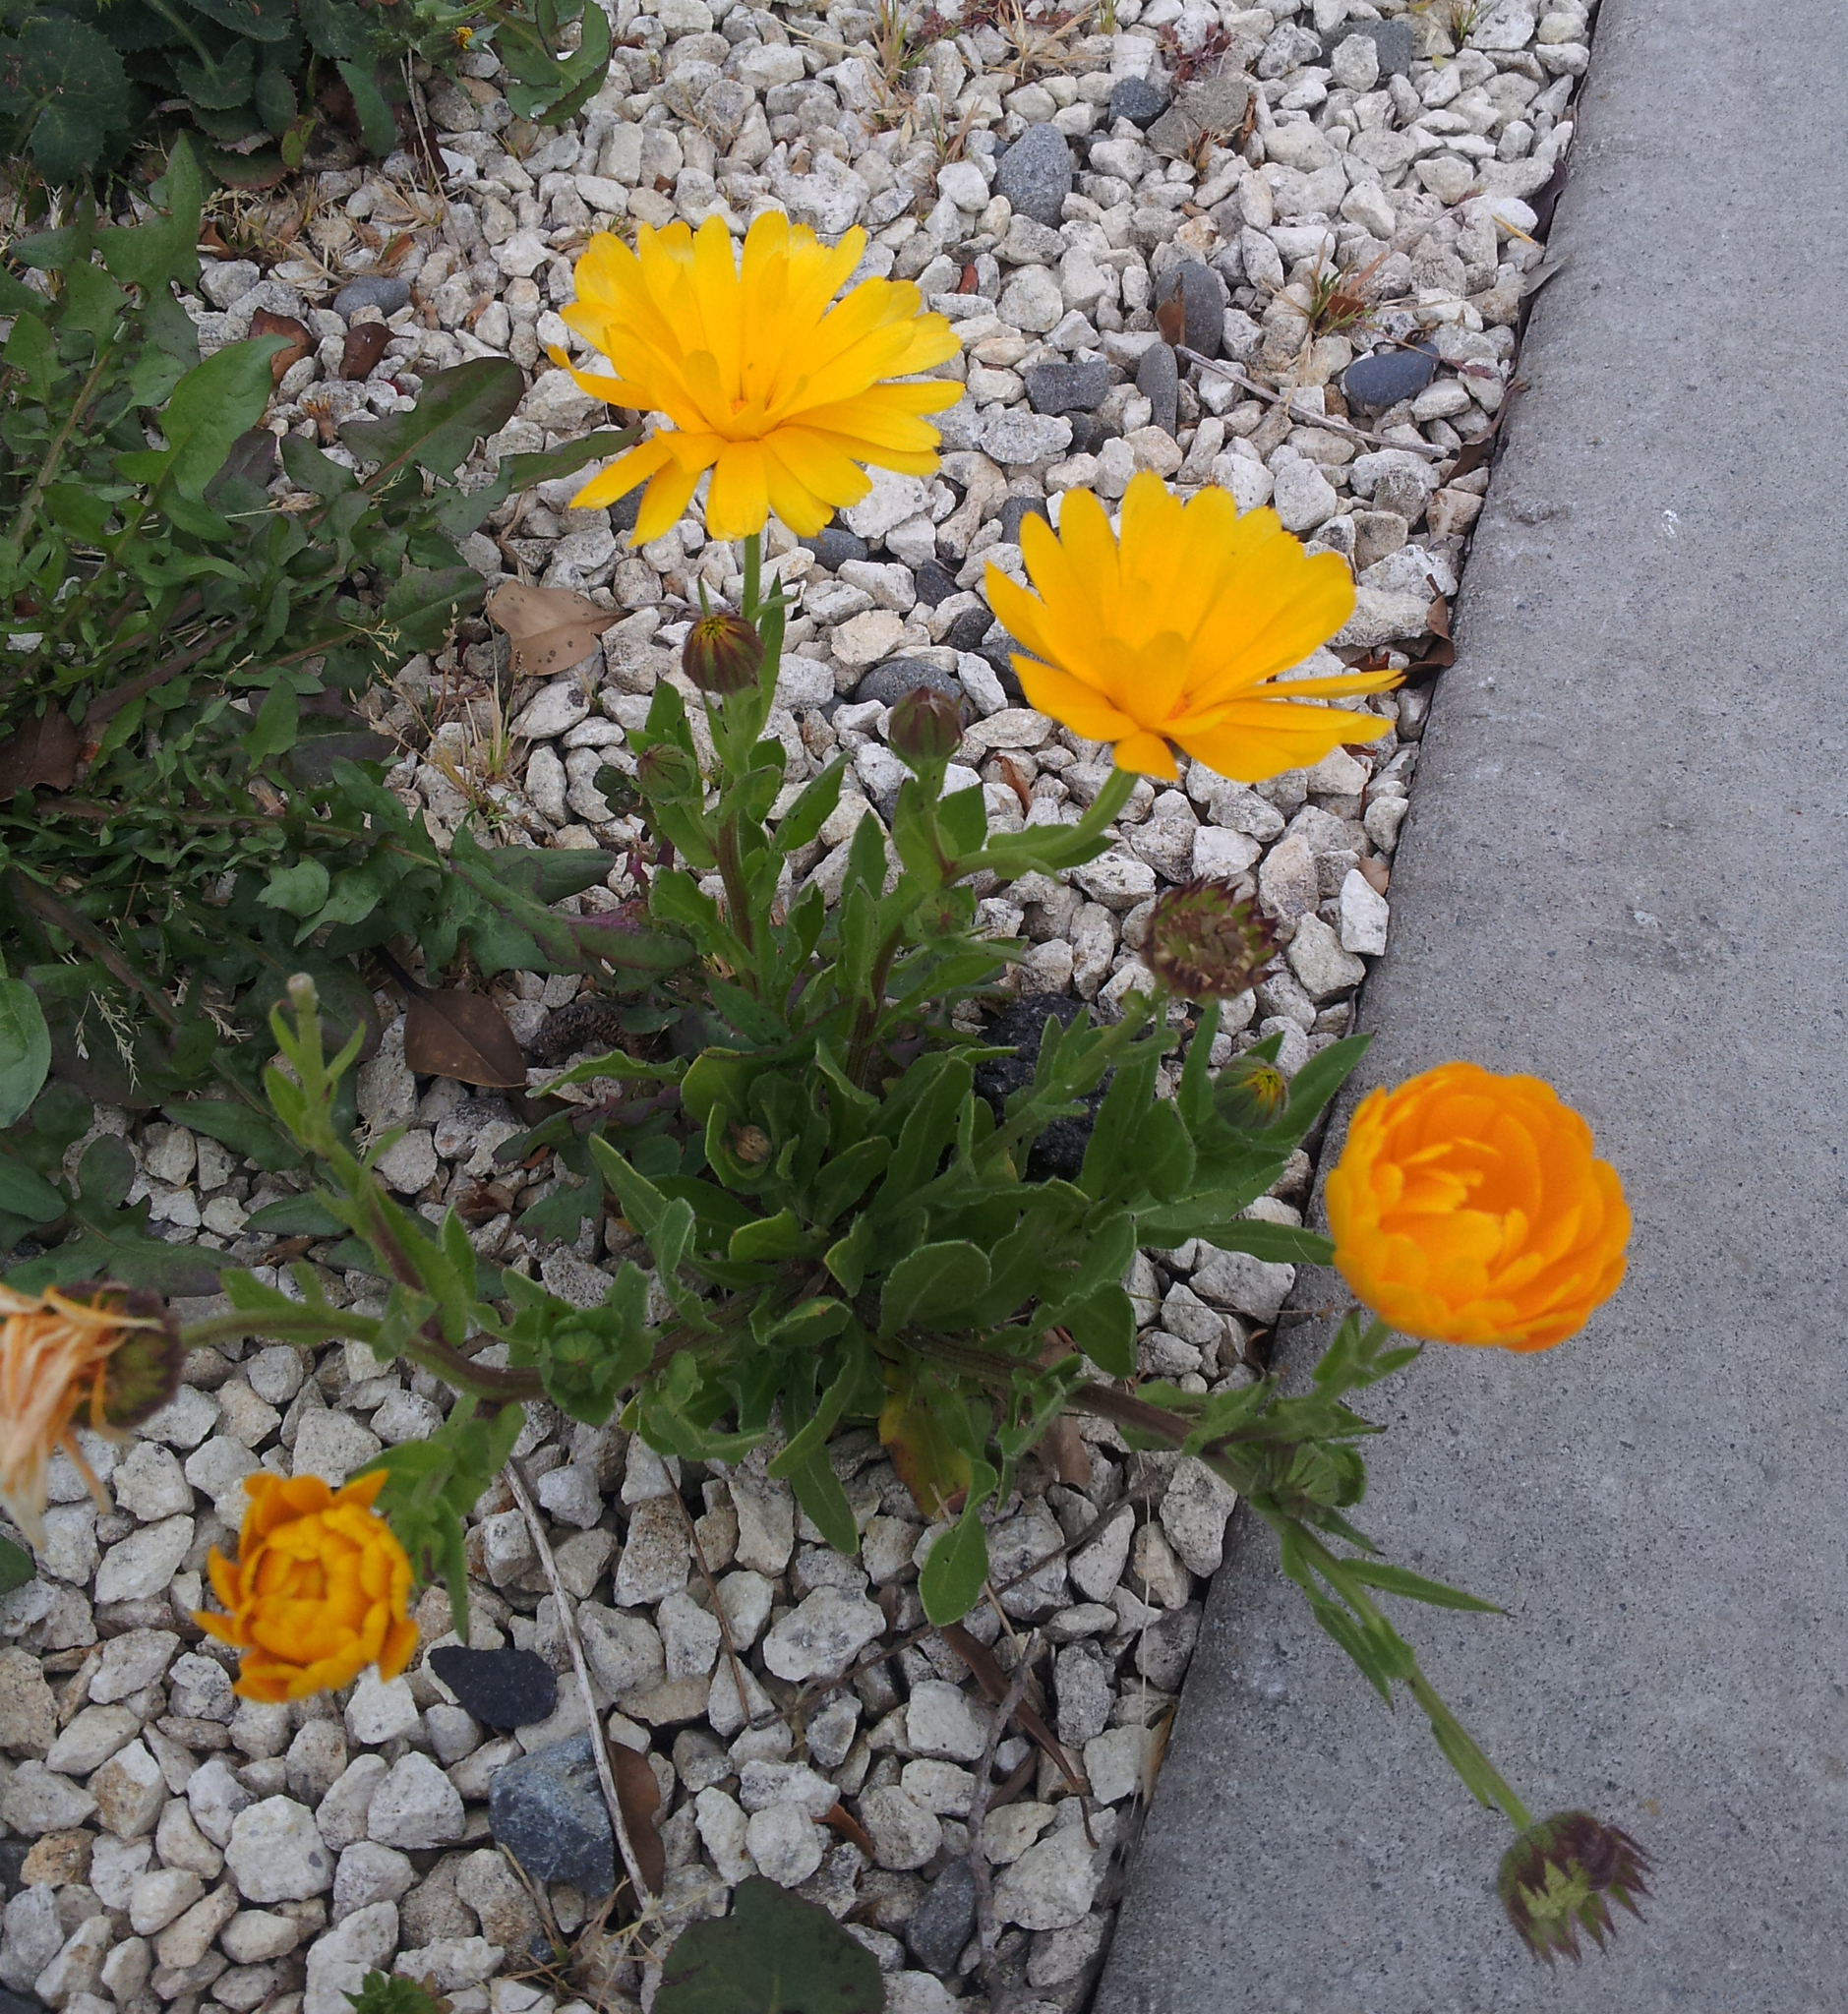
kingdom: Plantae
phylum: Tracheophyta
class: Magnoliopsida
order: Asterales
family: Asteraceae
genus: Calendula
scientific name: Calendula officinalis
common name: Pot marigold
